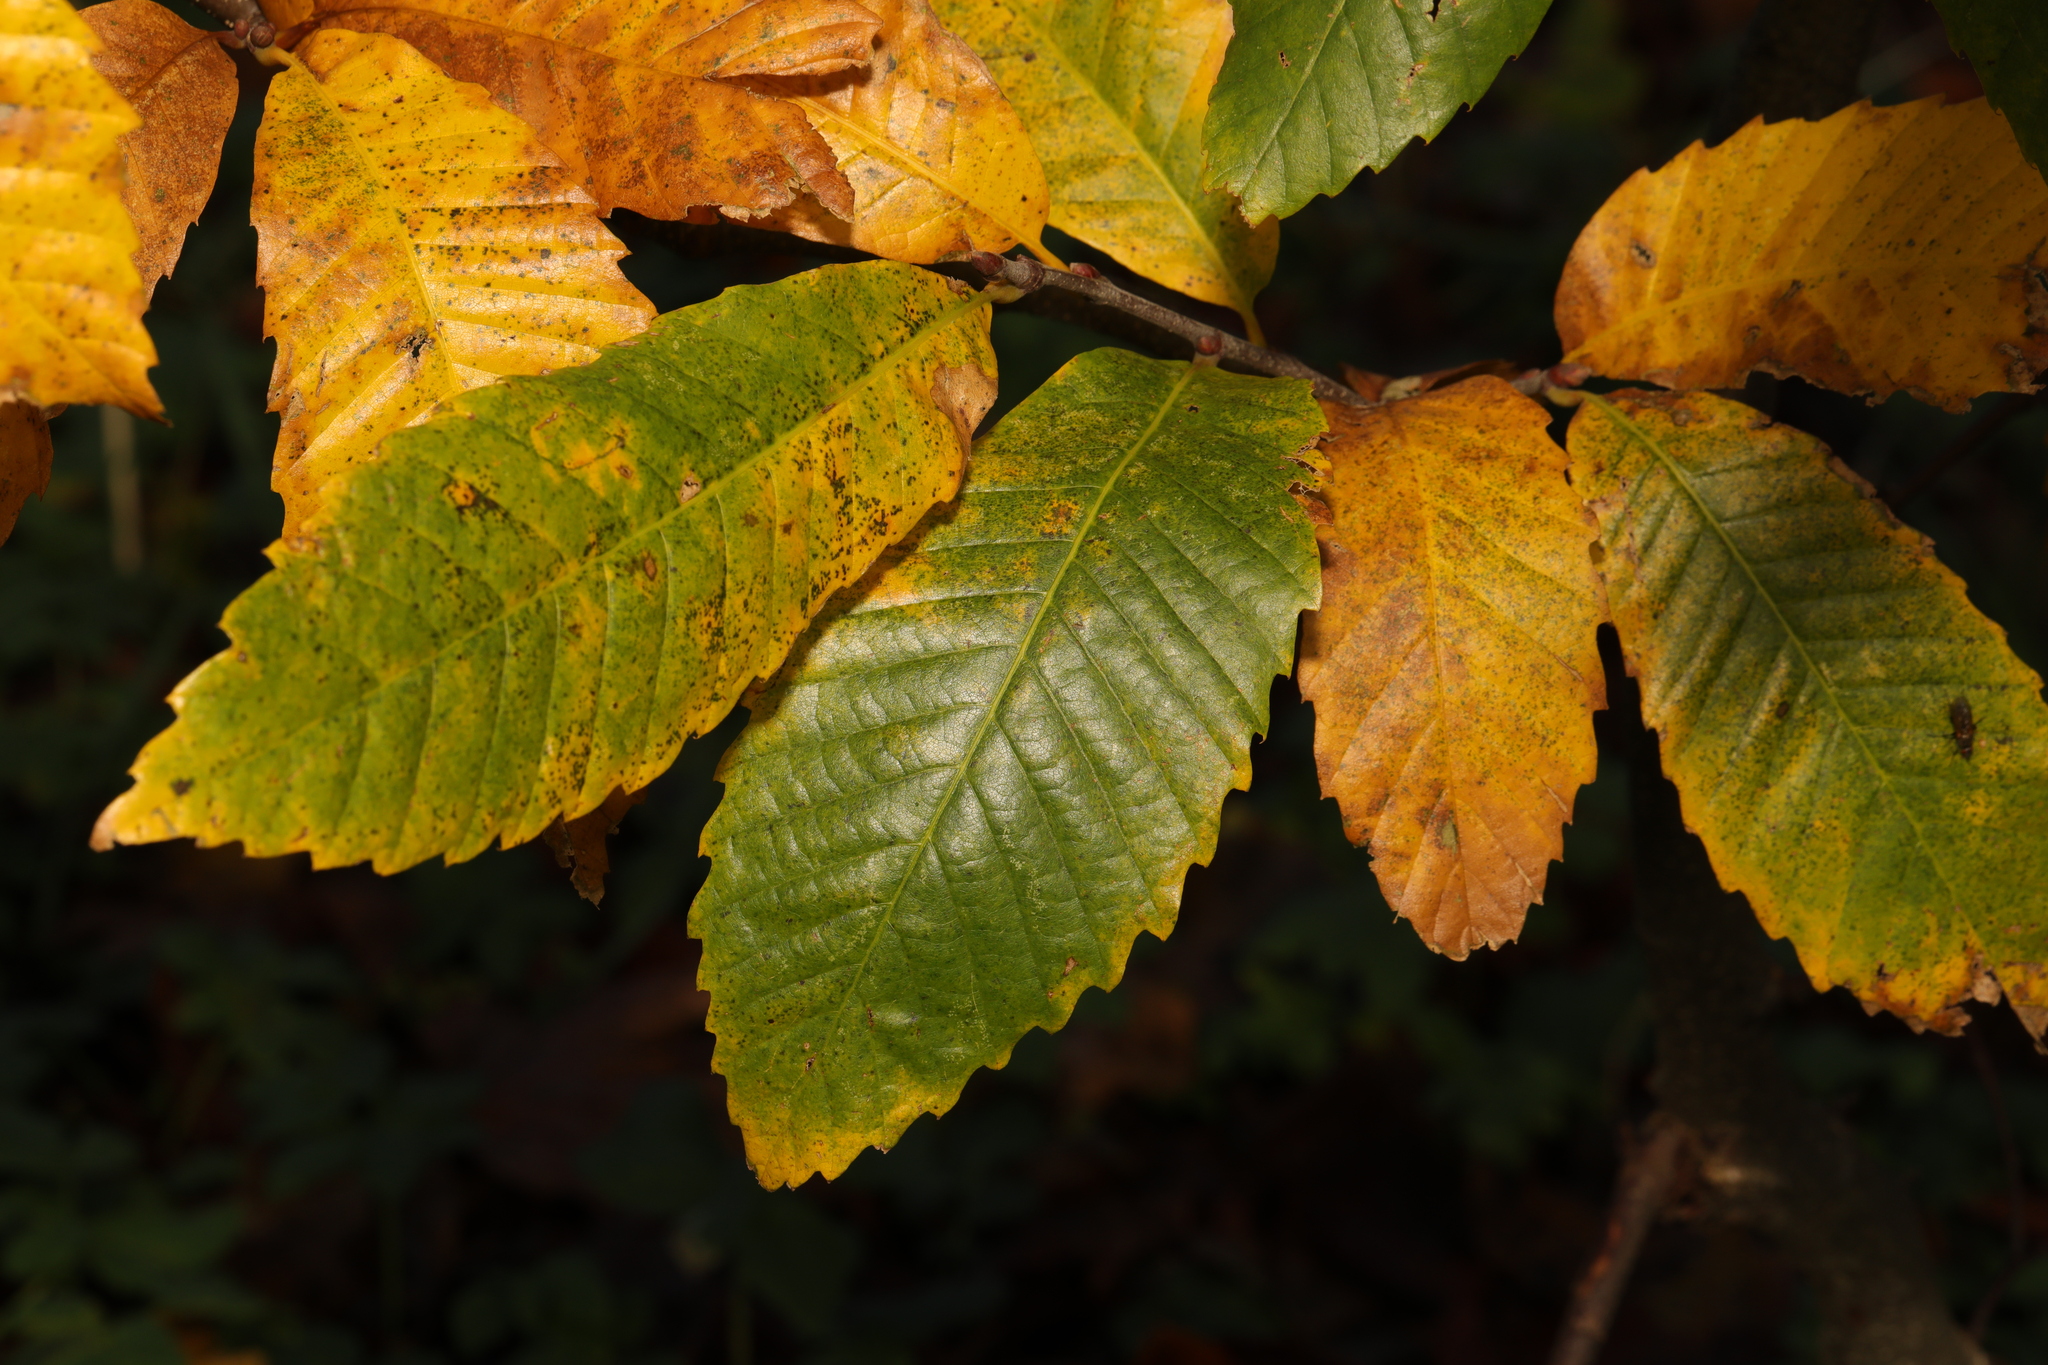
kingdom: Plantae
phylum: Tracheophyta
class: Magnoliopsida
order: Fagales
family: Fagaceae
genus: Castanea
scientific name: Castanea sativa
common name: Sweet chestnut
